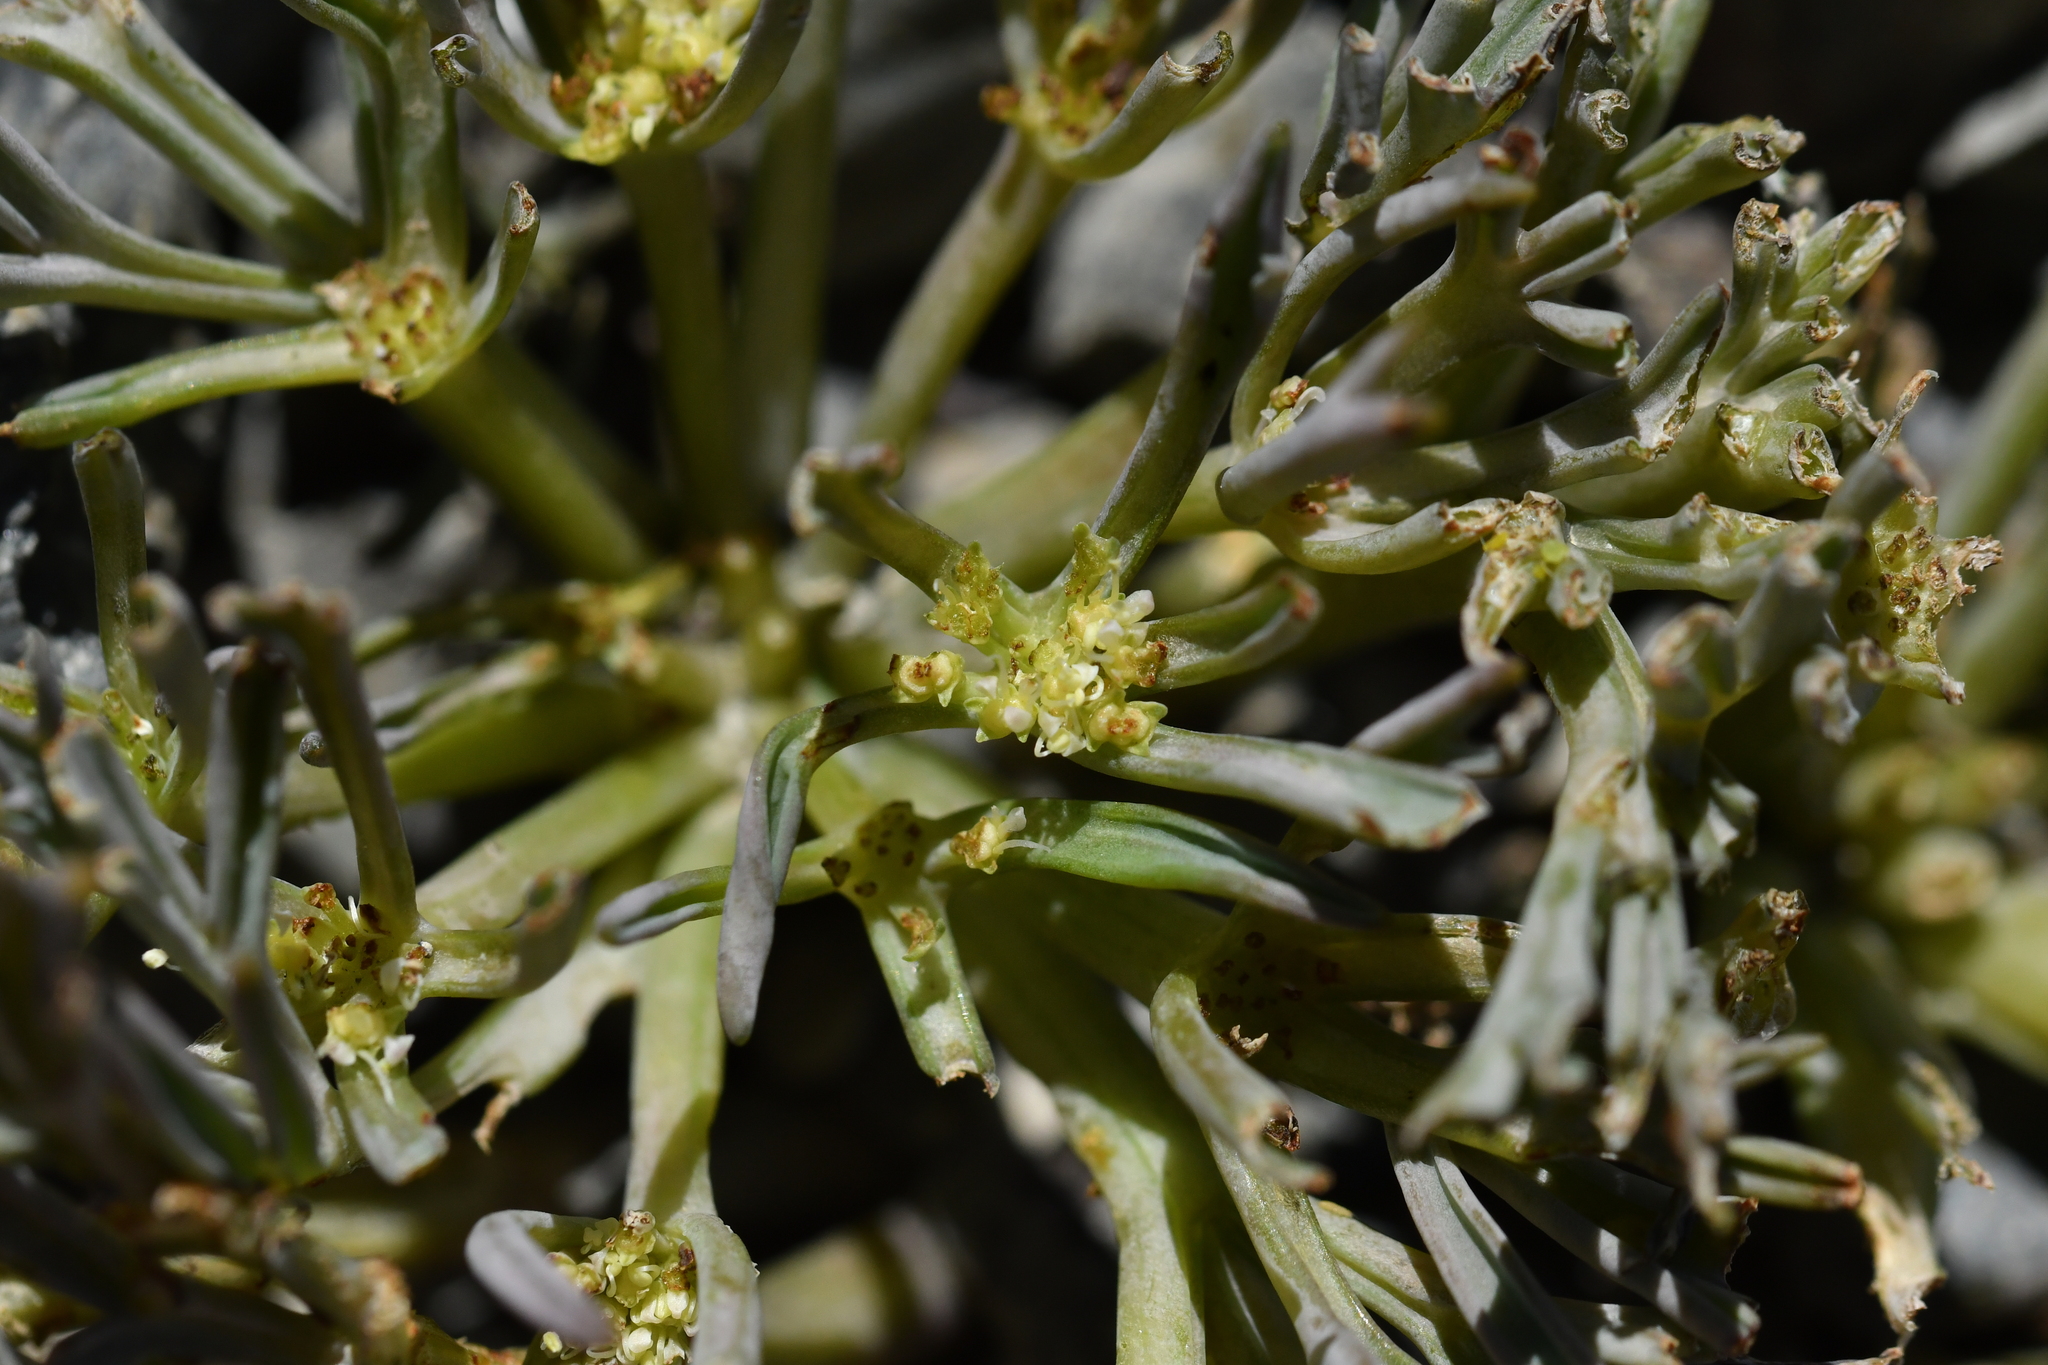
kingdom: Plantae
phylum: Tracheophyta
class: Magnoliopsida
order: Apiales
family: Apiaceae
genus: Lignocarpa
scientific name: Lignocarpa carnosula
